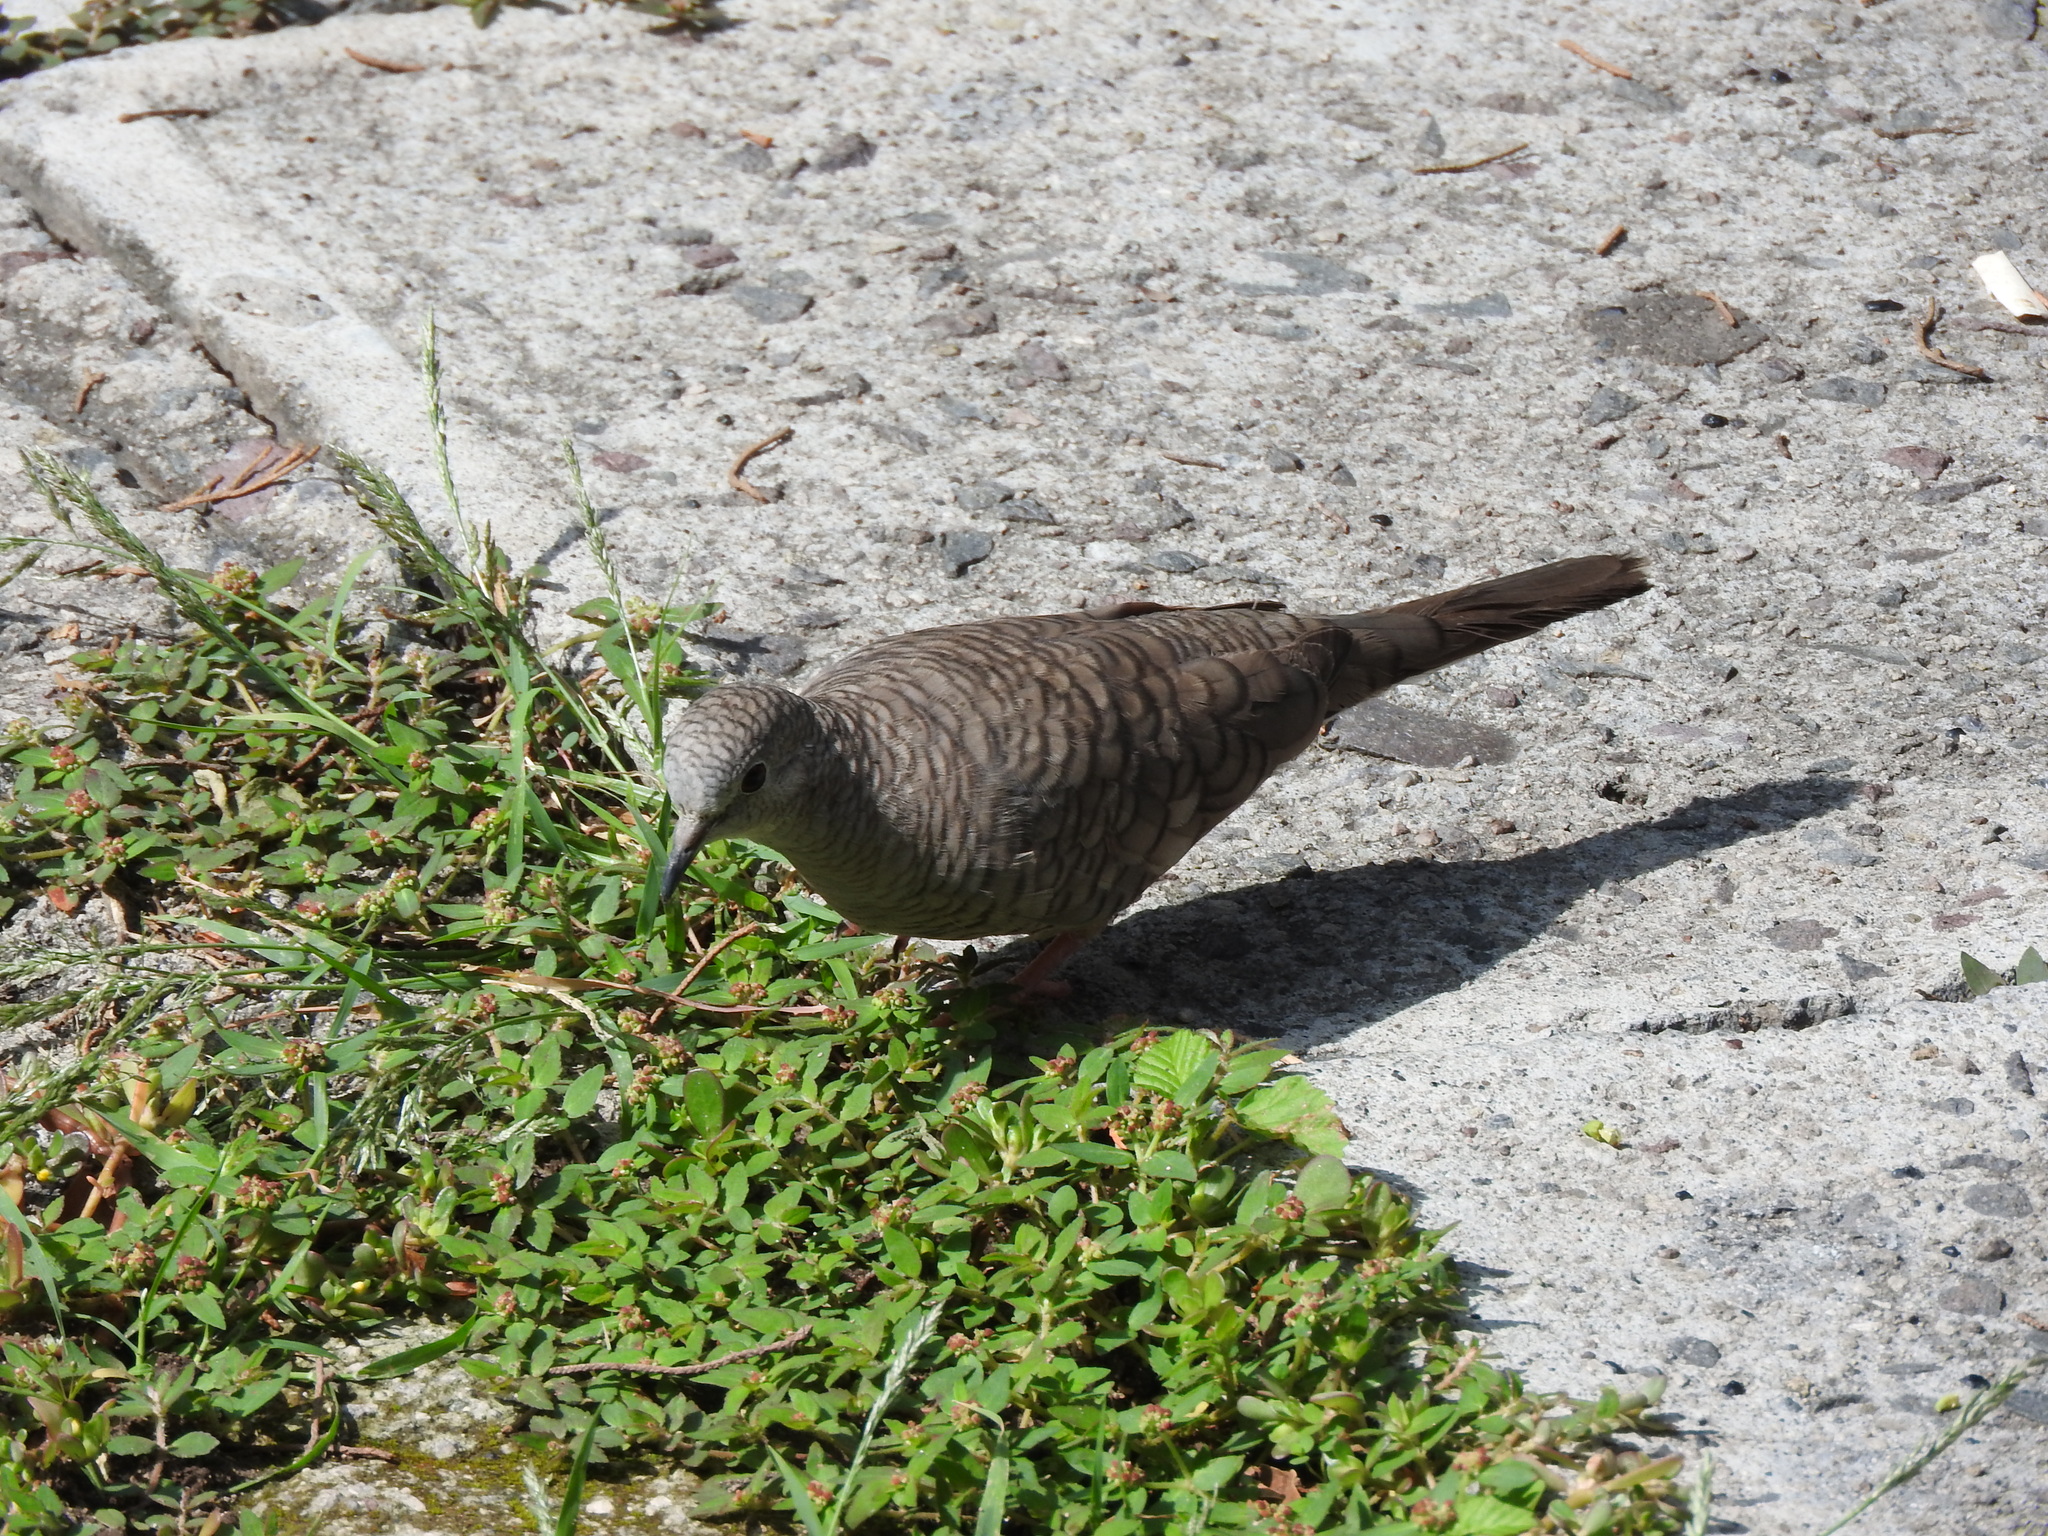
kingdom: Animalia
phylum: Chordata
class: Aves
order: Columbiformes
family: Columbidae
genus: Columbina
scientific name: Columbina inca
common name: Inca dove
